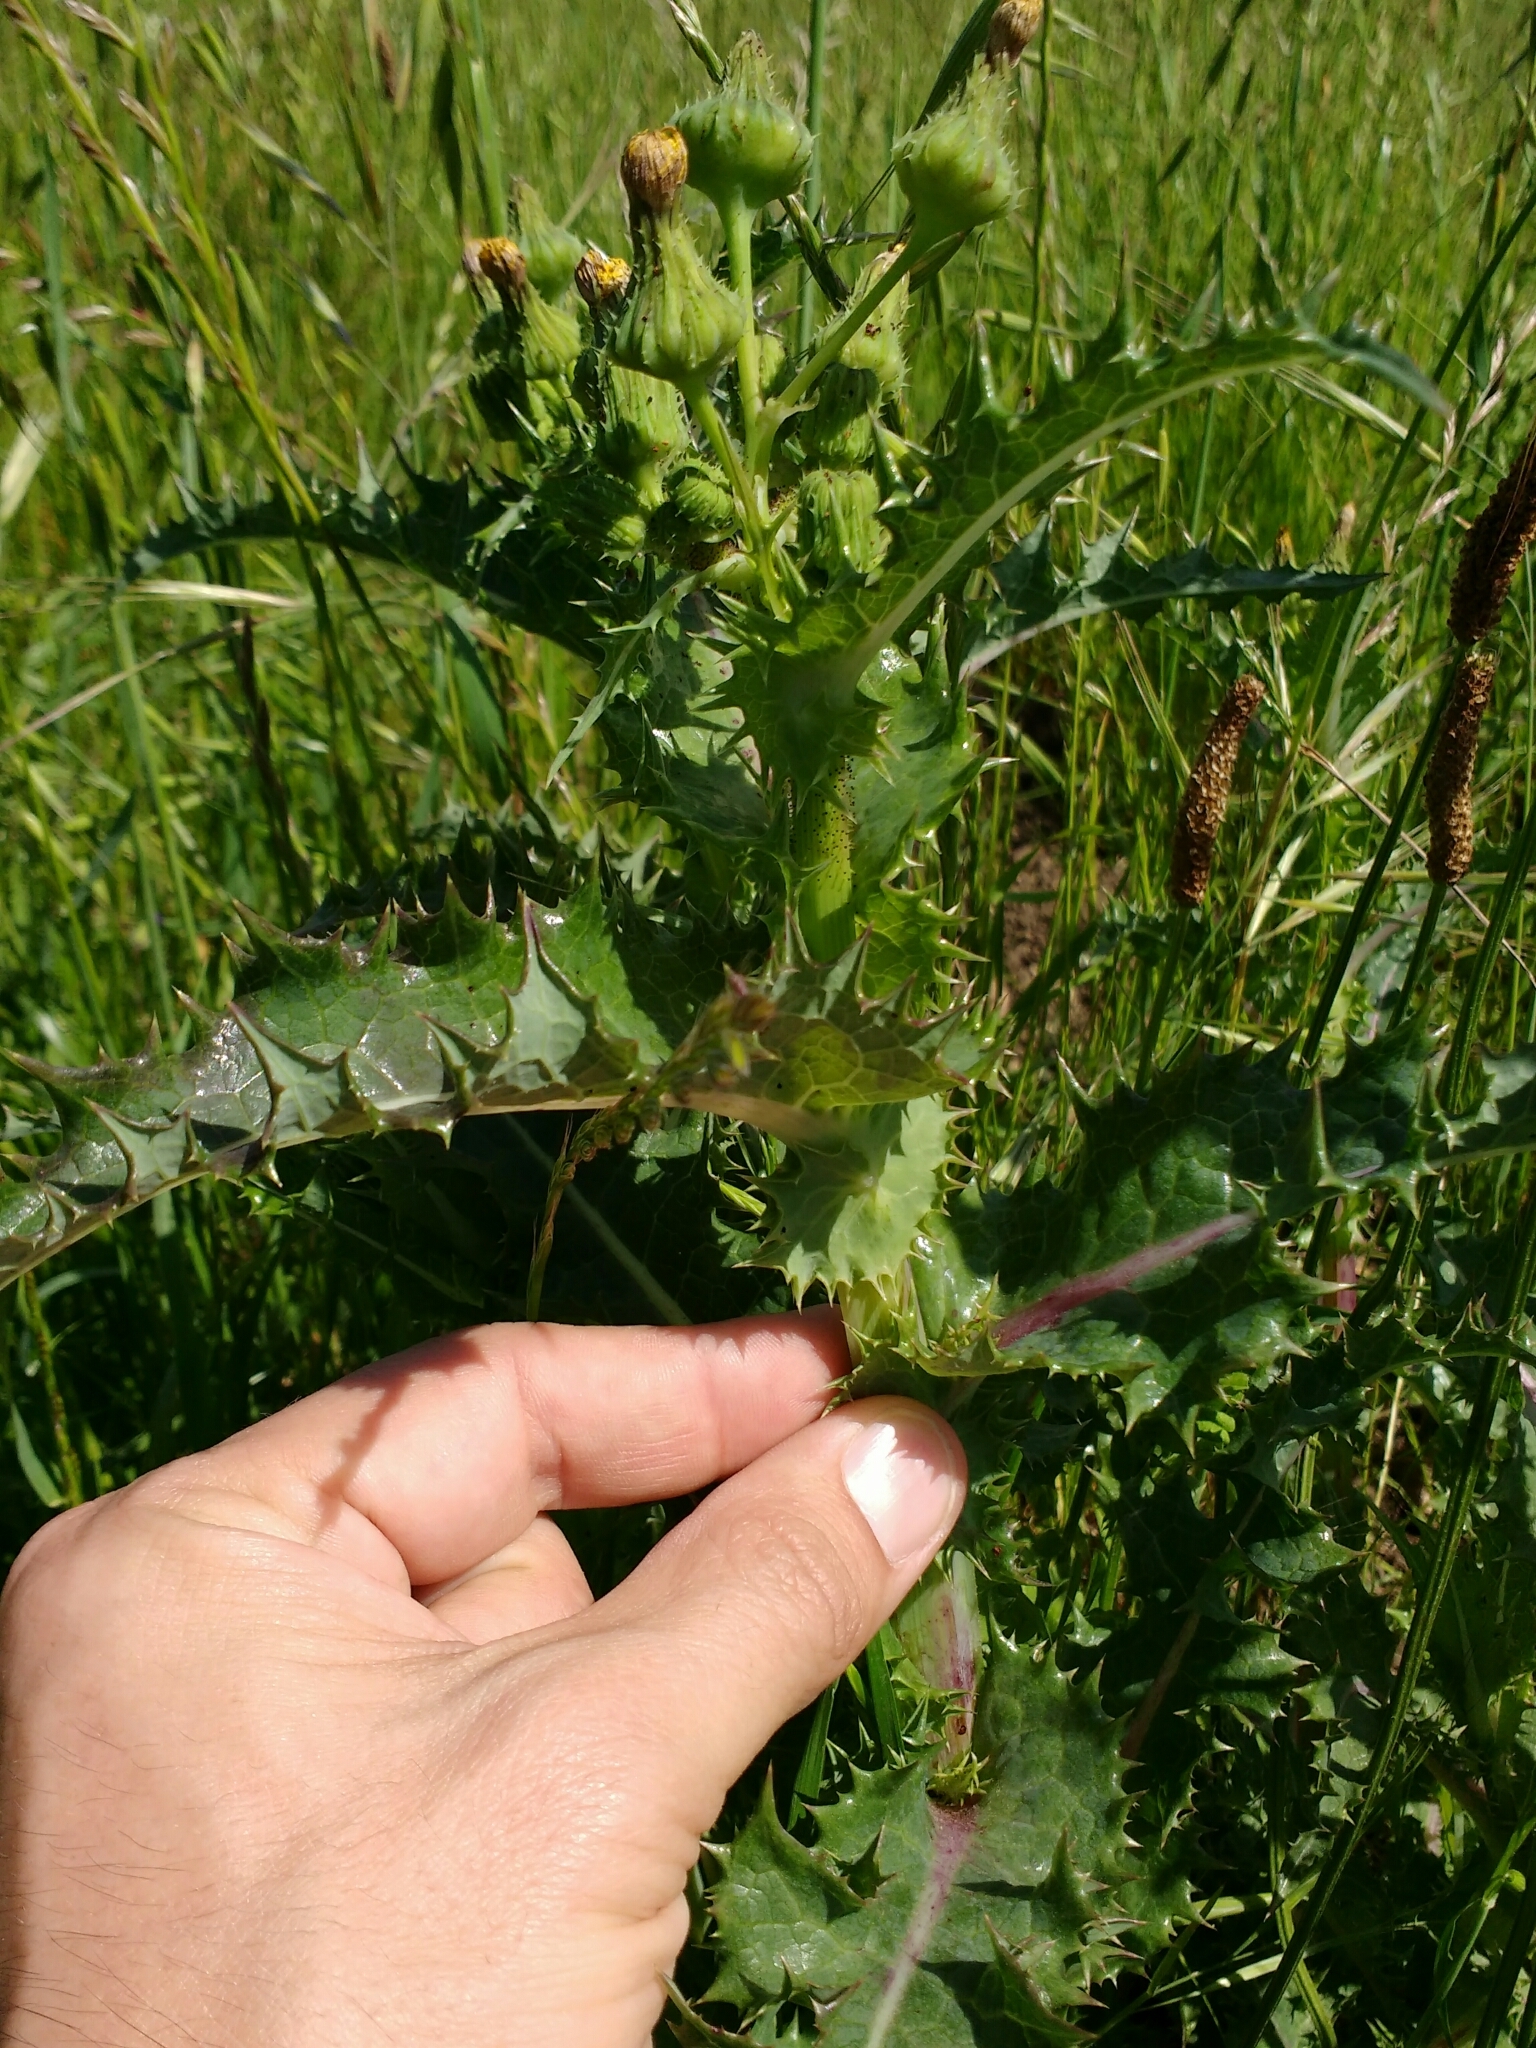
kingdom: Plantae
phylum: Tracheophyta
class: Magnoliopsida
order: Asterales
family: Asteraceae
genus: Sonchus
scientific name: Sonchus asper
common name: Prickly sow-thistle
